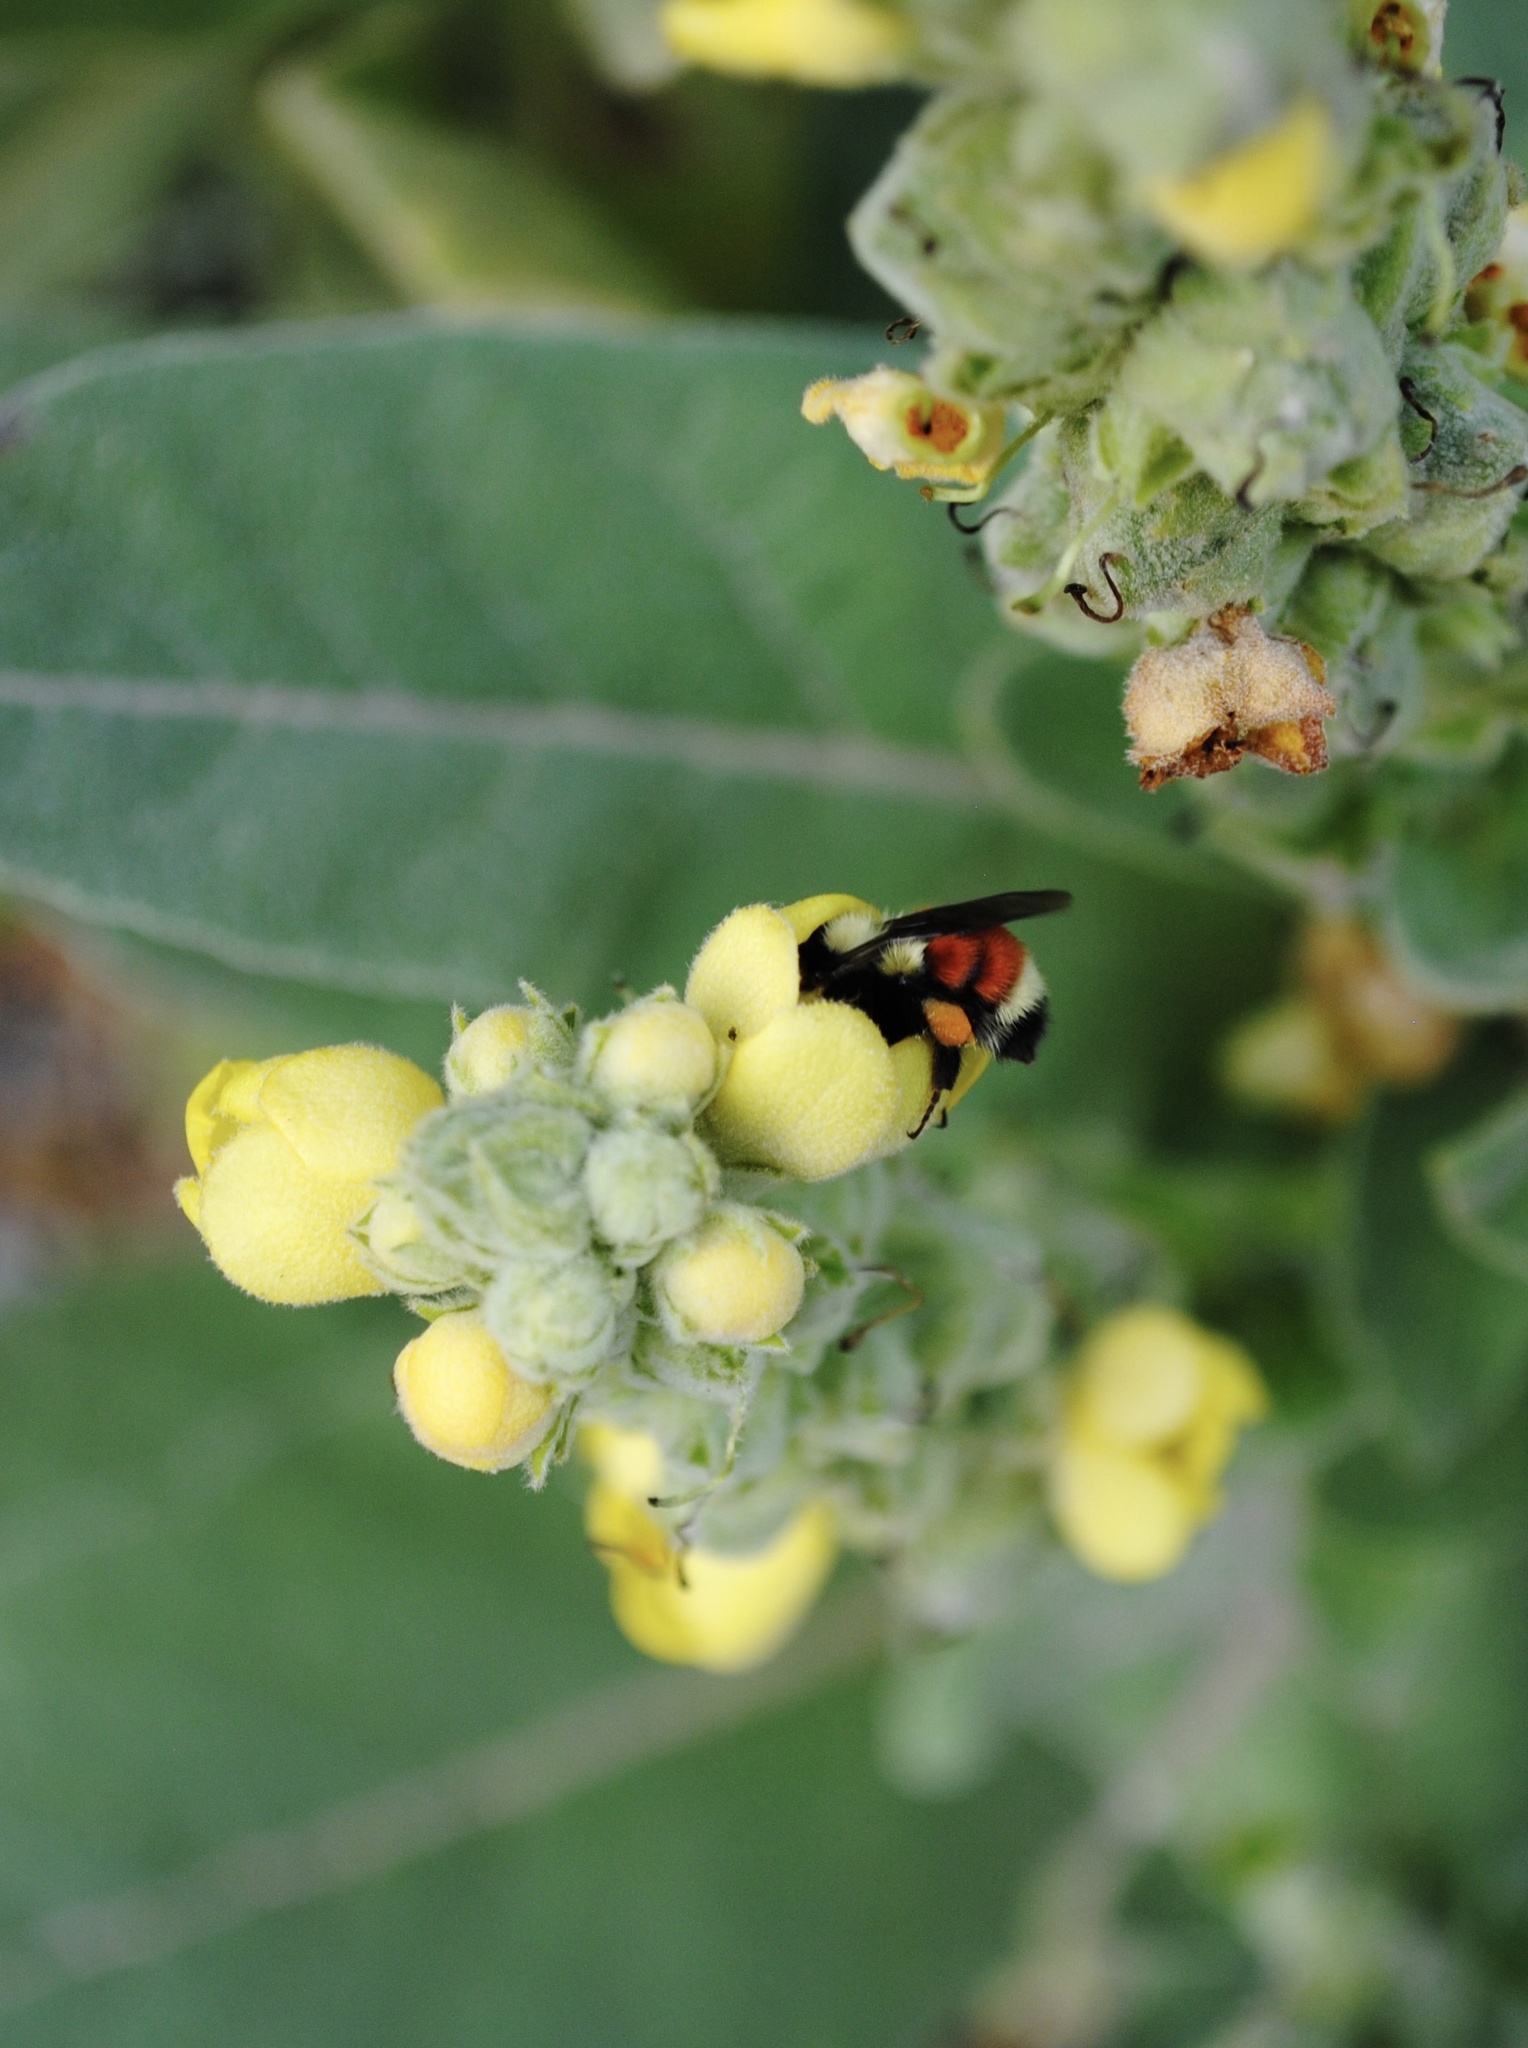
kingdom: Animalia
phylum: Arthropoda
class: Insecta
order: Hymenoptera
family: Apidae
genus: Bombus
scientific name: Bombus huntii
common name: Hunt bumble bee
